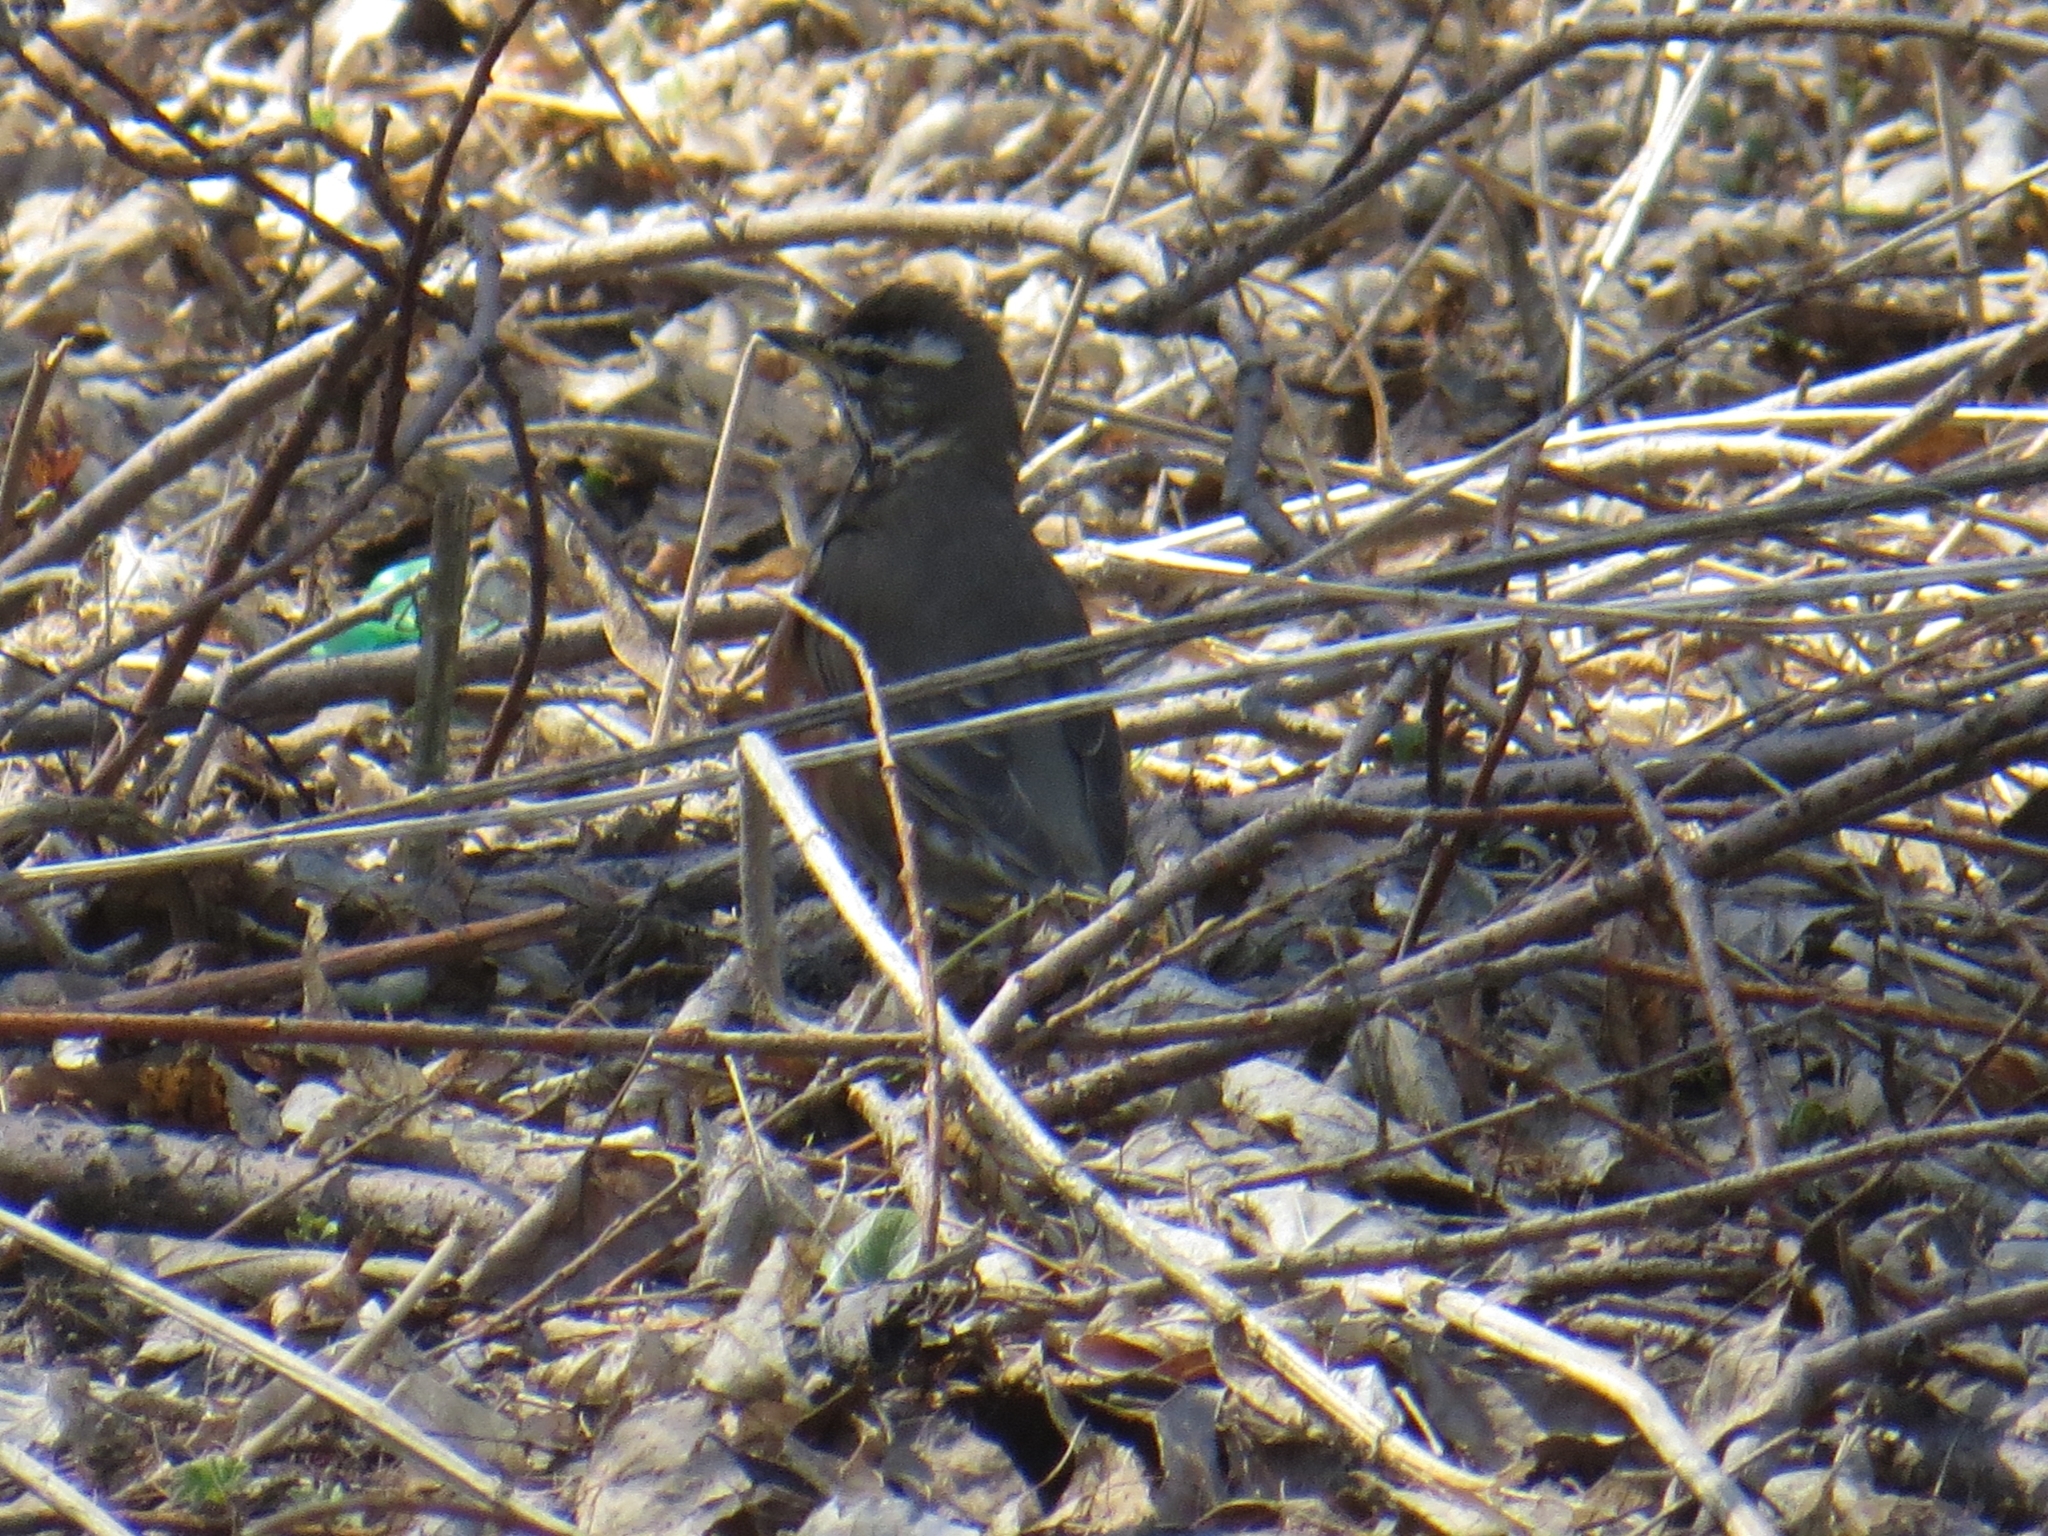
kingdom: Animalia
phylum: Chordata
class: Aves
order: Passeriformes
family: Turdidae
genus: Turdus
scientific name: Turdus iliacus
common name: Redwing
